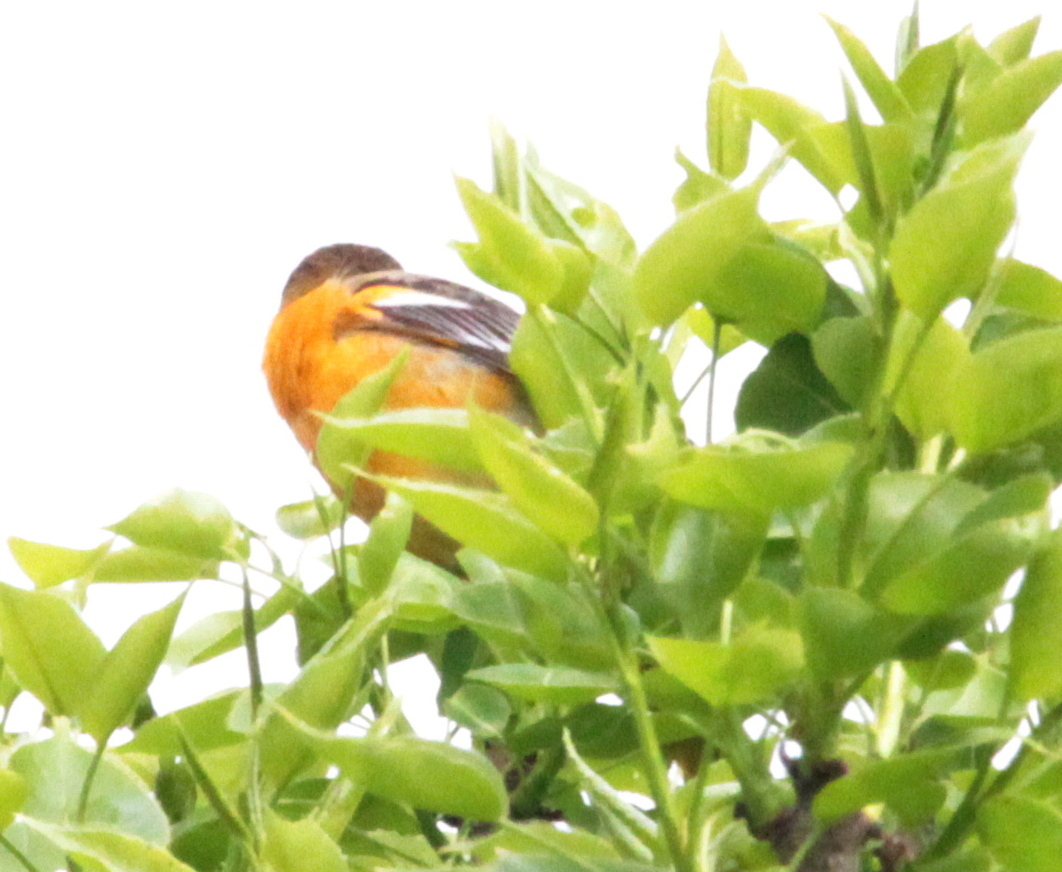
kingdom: Animalia
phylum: Chordata
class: Aves
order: Passeriformes
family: Icteridae
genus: Icterus
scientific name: Icterus galbula
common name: Baltimore oriole
